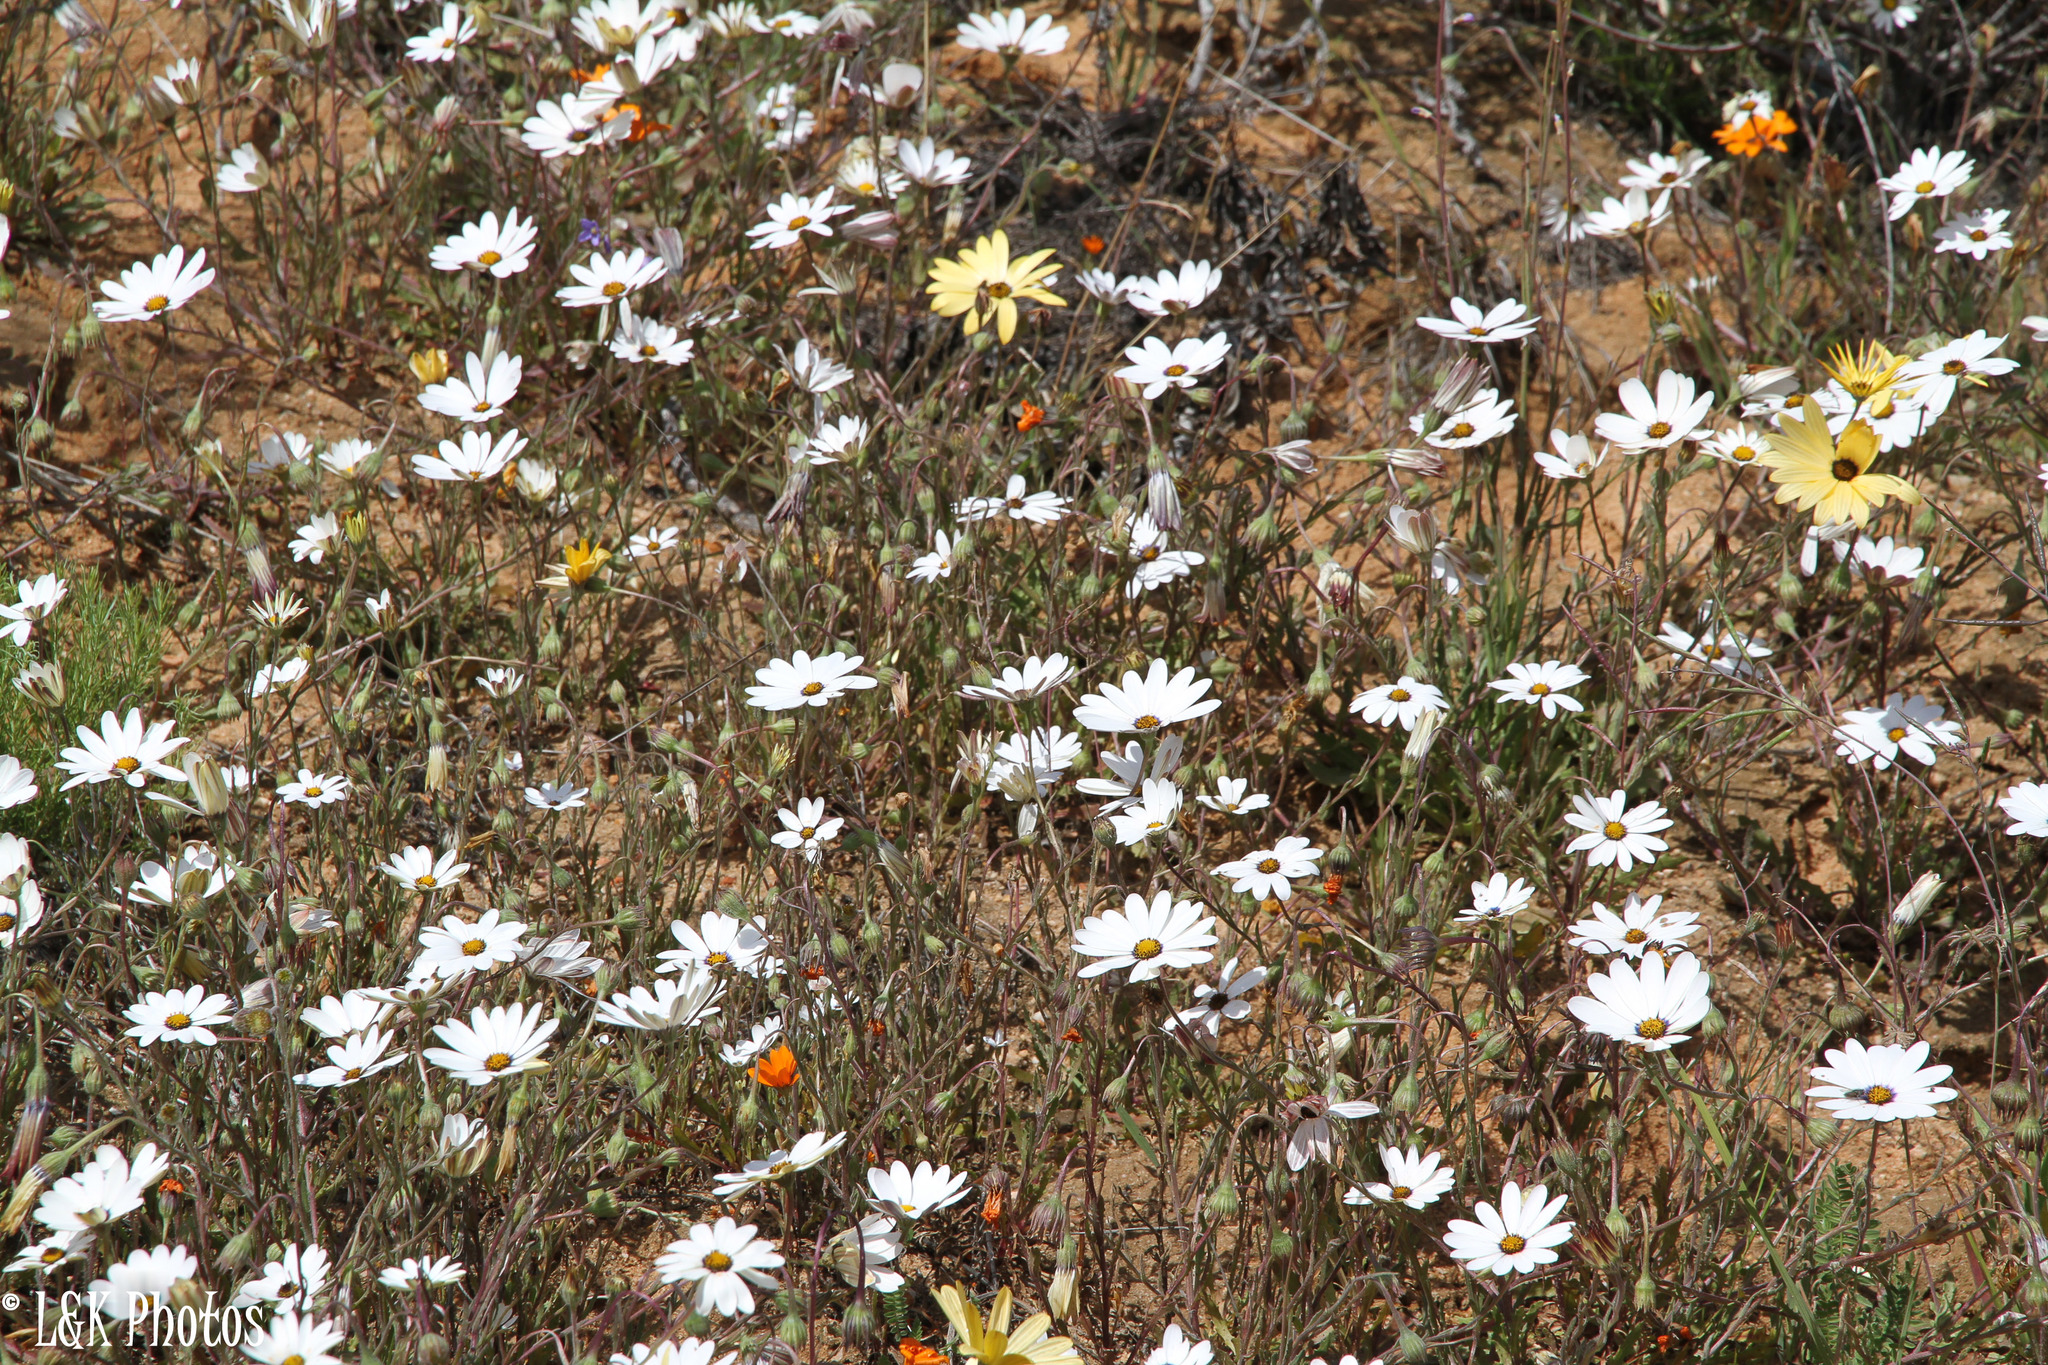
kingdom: Plantae
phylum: Tracheophyta
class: Magnoliopsida
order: Asterales
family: Asteraceae
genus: Dimorphotheca
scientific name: Dimorphotheca pluvialis
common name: Weather prophet
